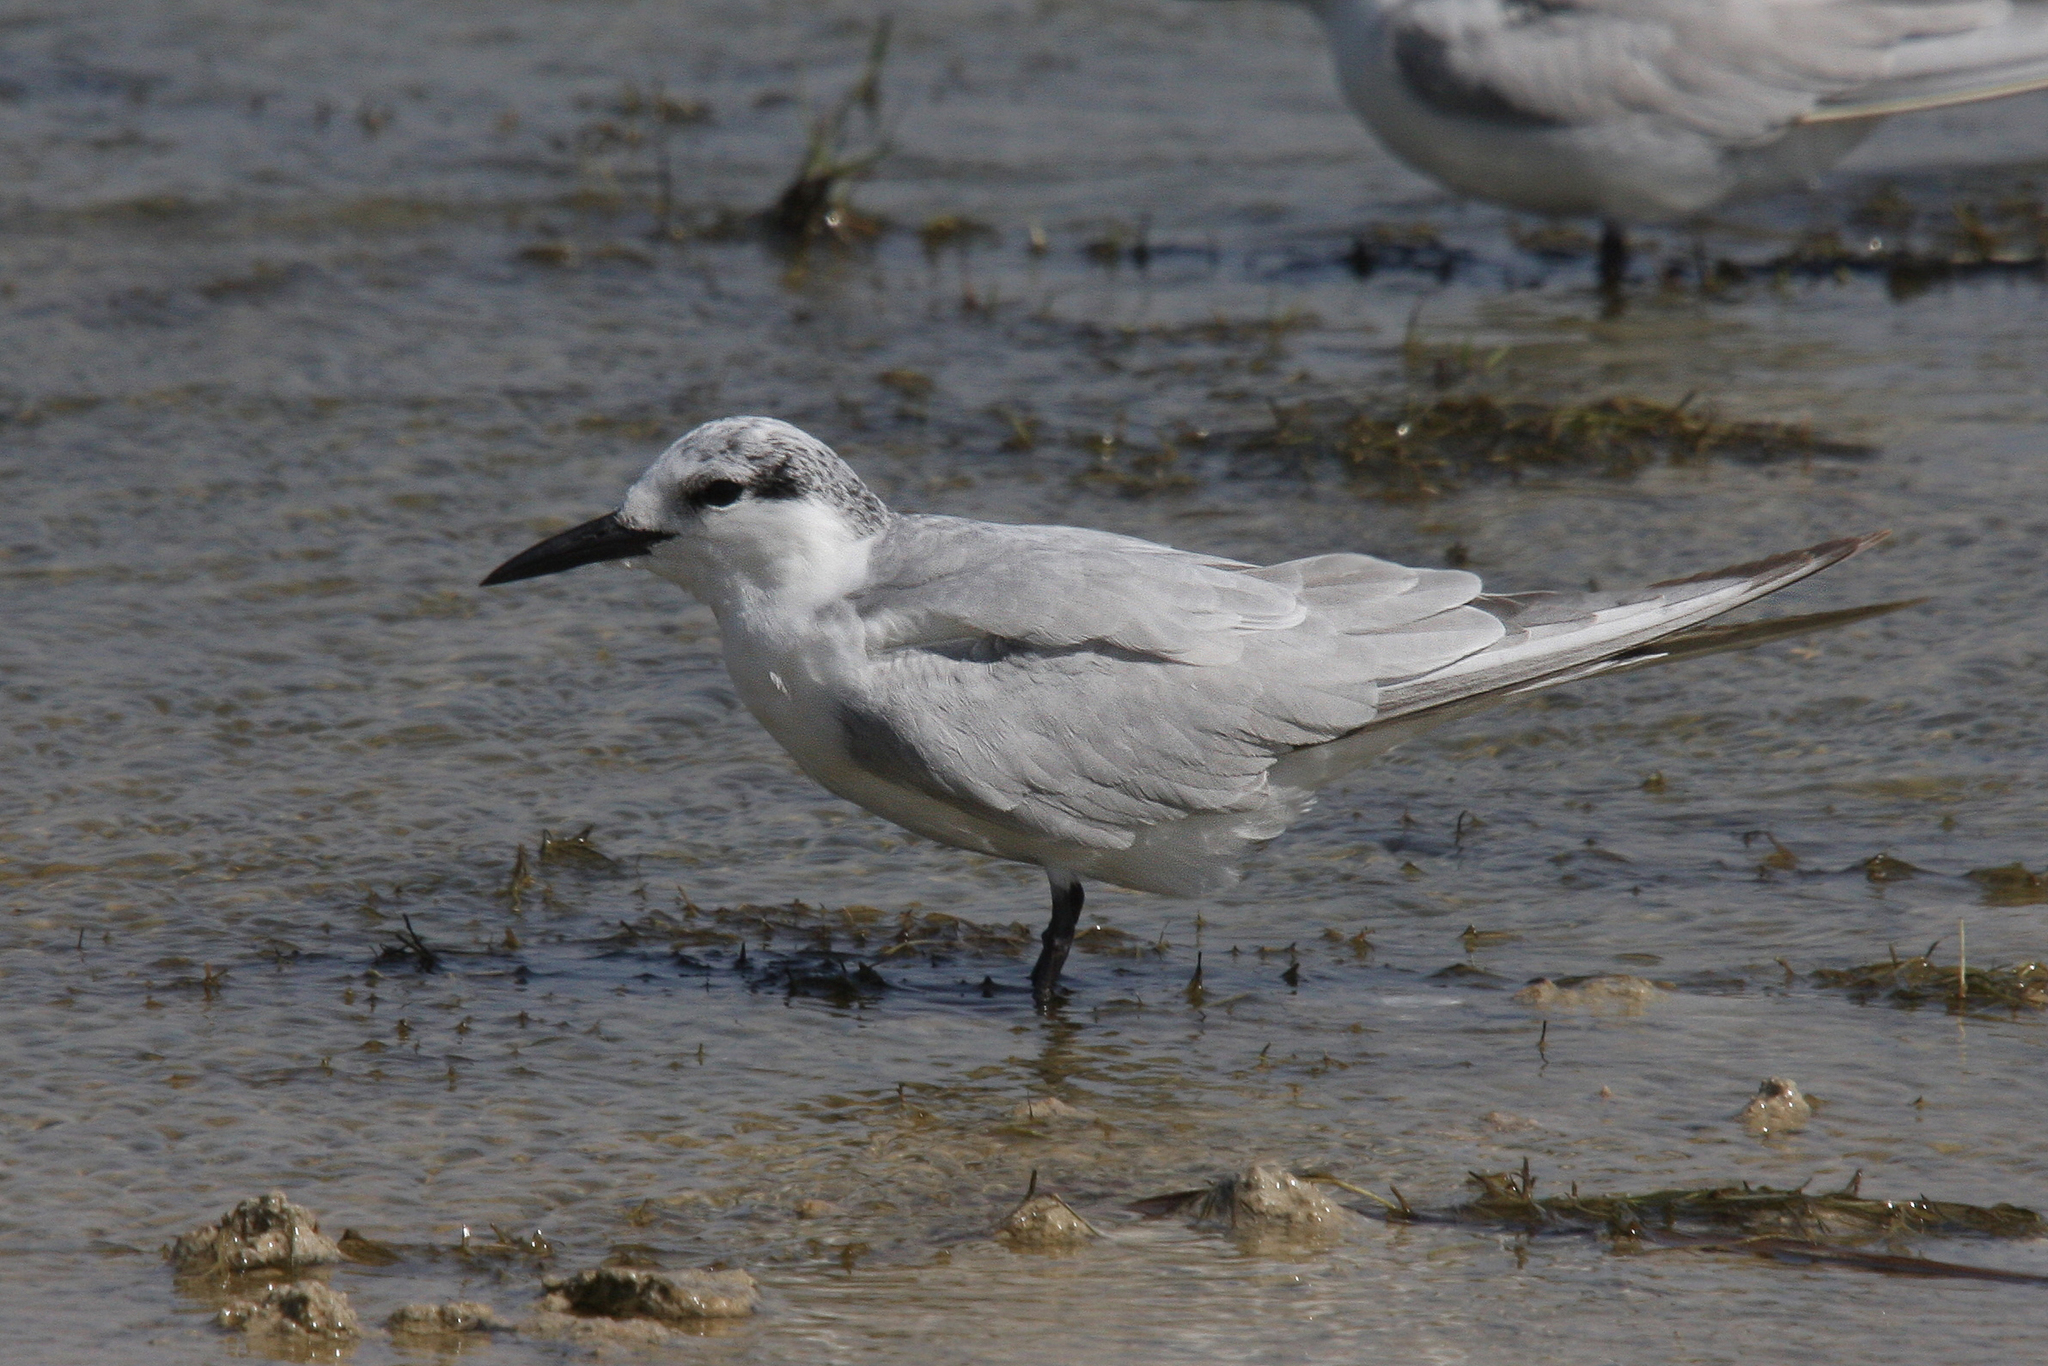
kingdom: Animalia
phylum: Chordata
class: Aves
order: Charadriiformes
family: Laridae
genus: Chlidonias
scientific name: Chlidonias hybrida
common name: Whiskered tern
